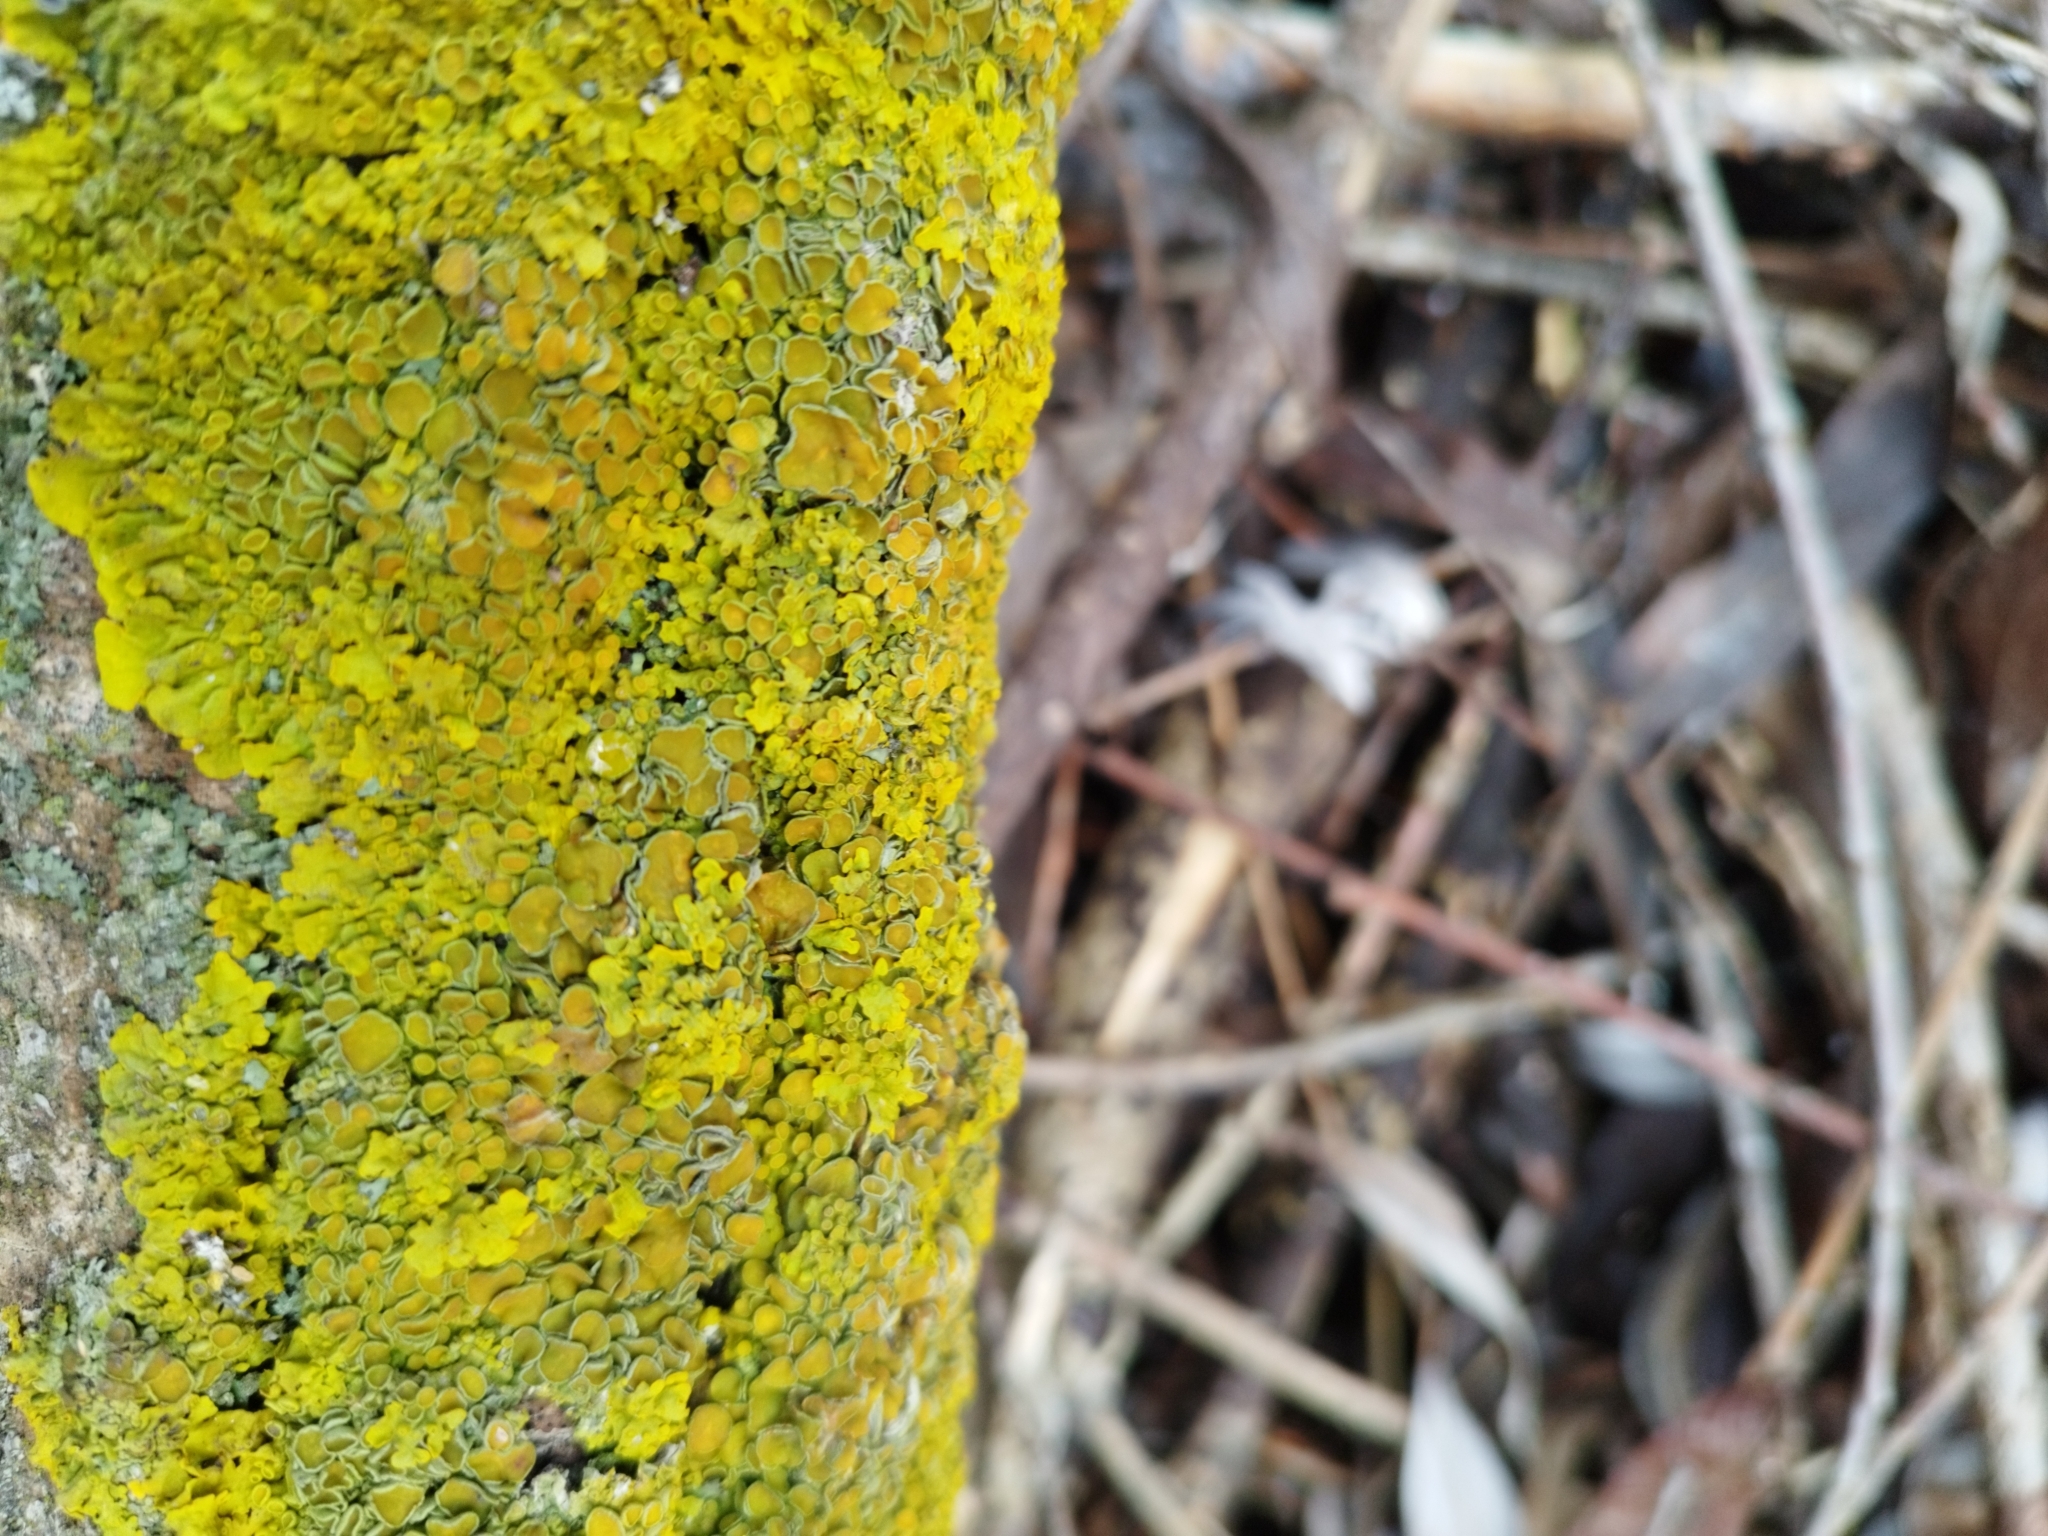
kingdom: Fungi
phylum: Ascomycota
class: Lecanoromycetes
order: Teloschistales
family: Teloschistaceae
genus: Xanthoria
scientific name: Xanthoria parietina
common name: Common orange lichen
